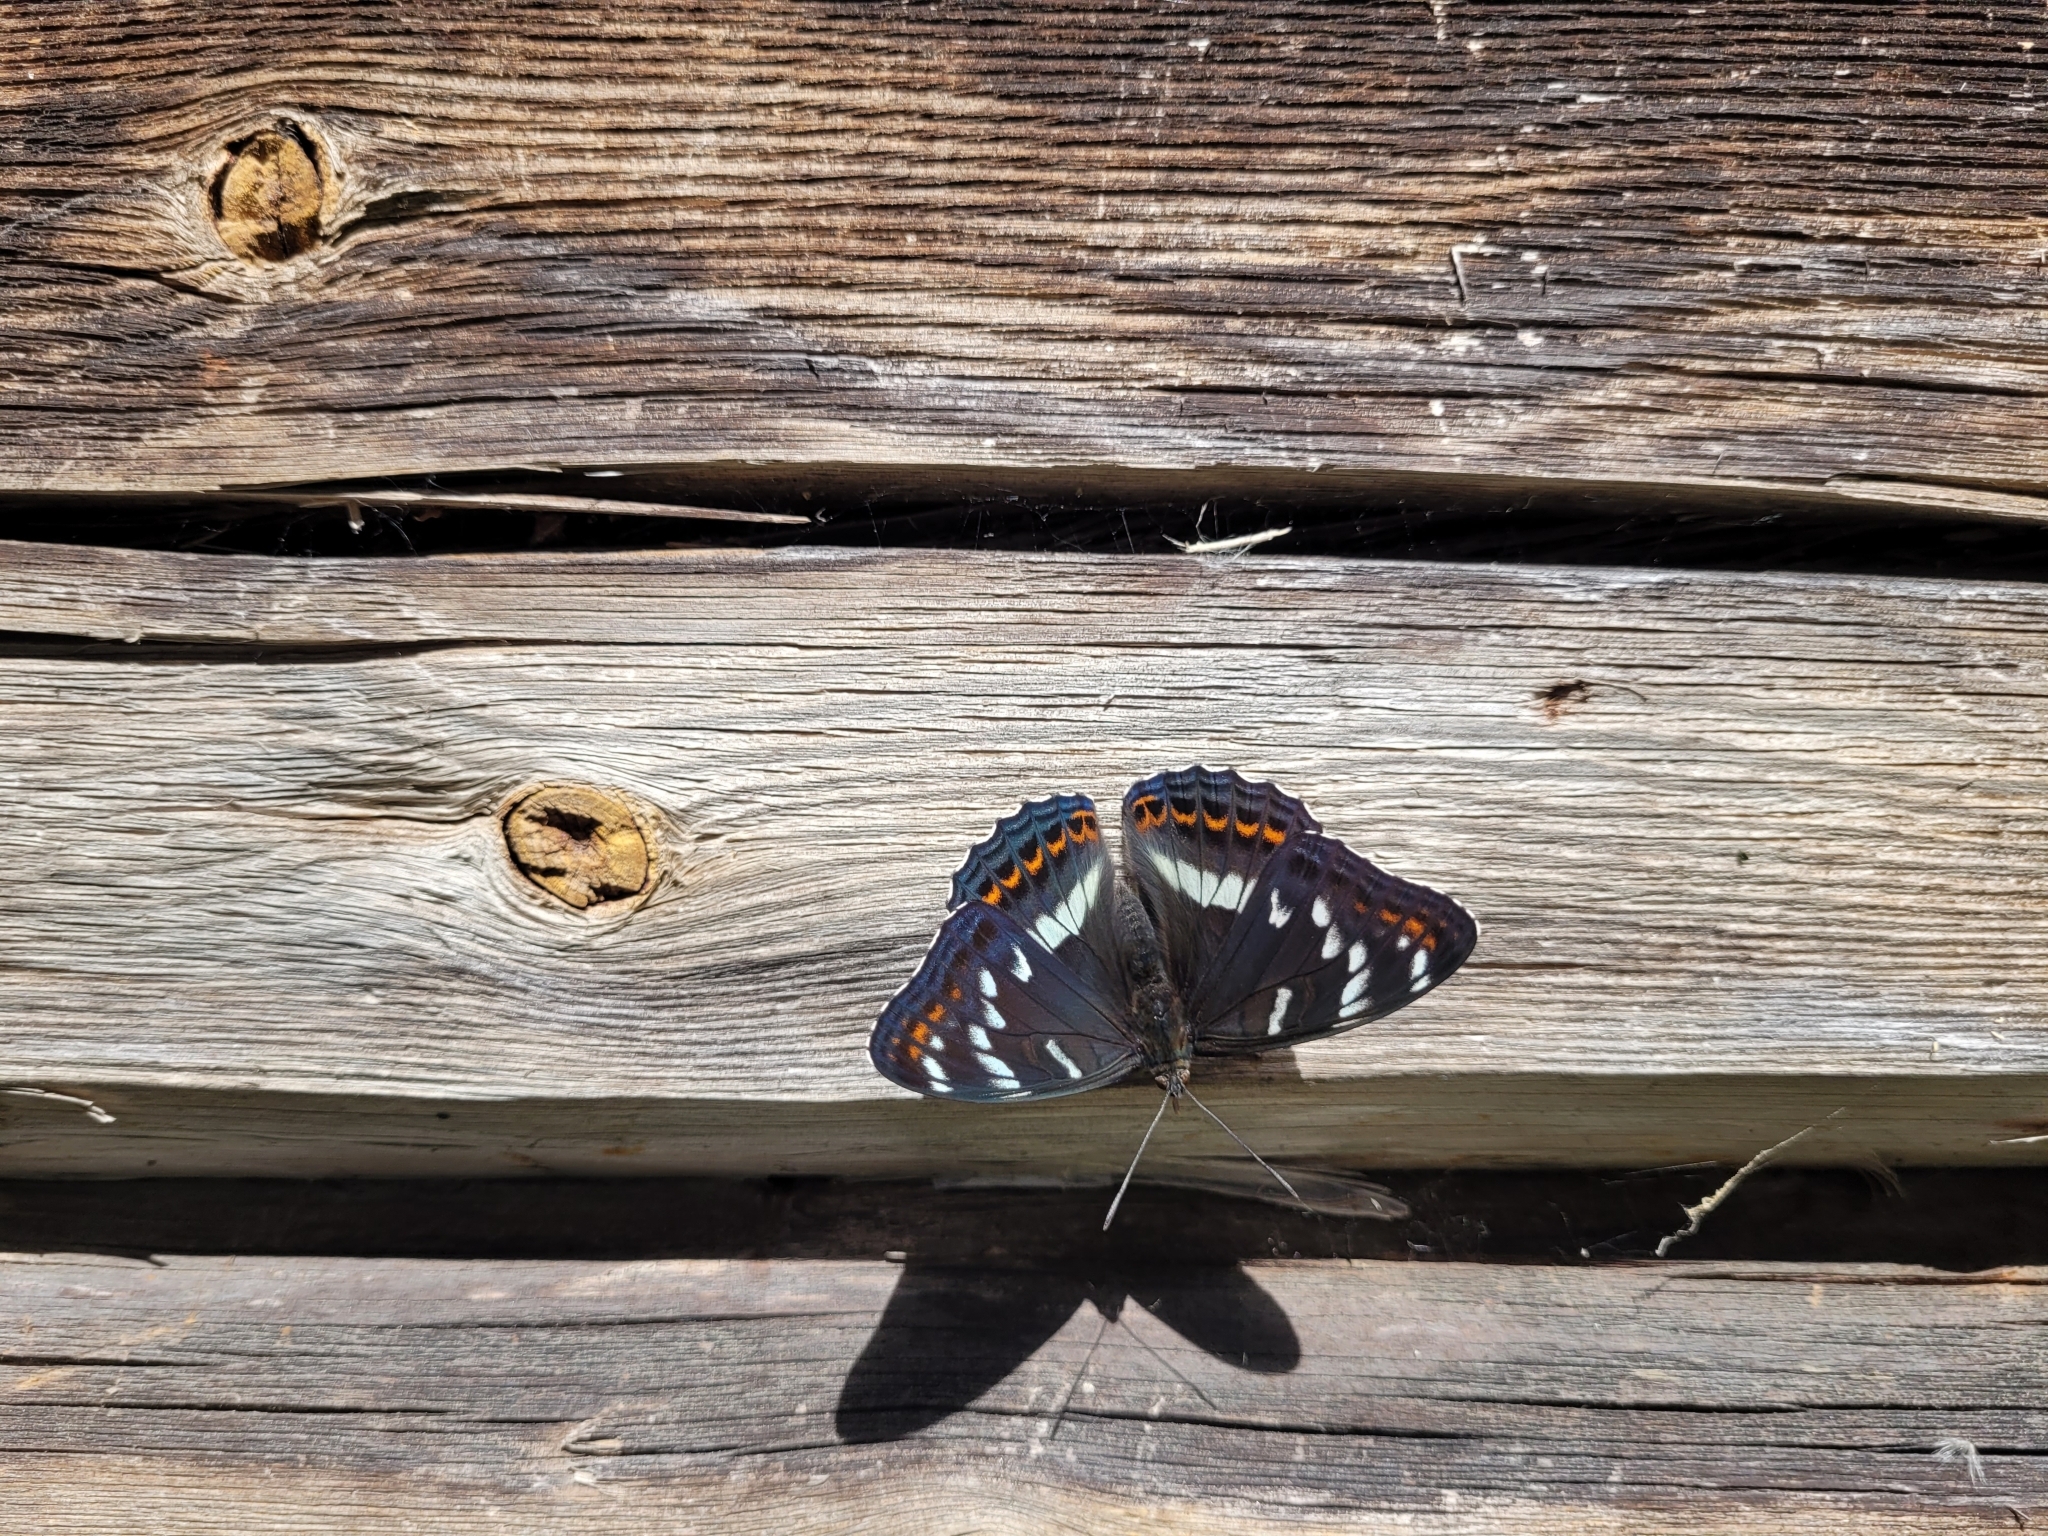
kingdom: Animalia
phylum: Arthropoda
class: Insecta
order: Lepidoptera
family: Nymphalidae
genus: Limenitis
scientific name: Limenitis populi
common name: Poplar admiral
